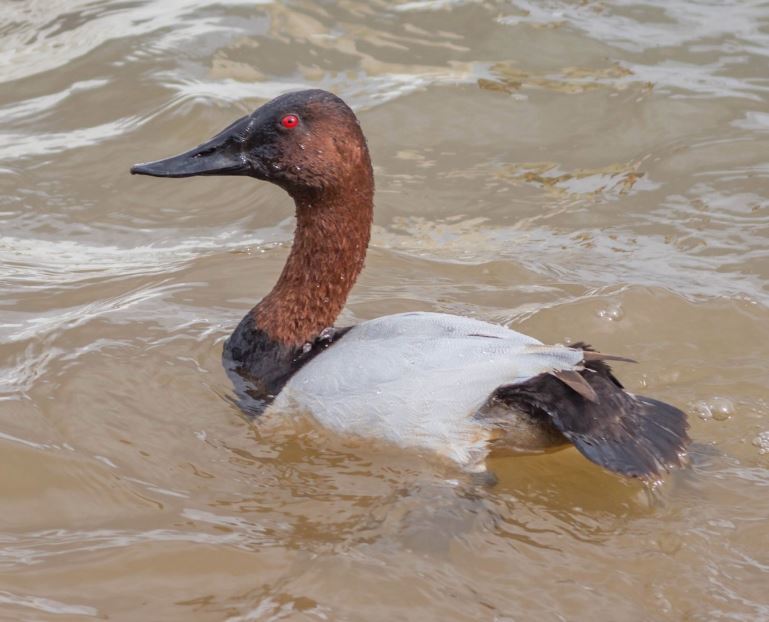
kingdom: Animalia
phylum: Chordata
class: Aves
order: Anseriformes
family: Anatidae
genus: Aythya
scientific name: Aythya valisineria
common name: Canvasback
